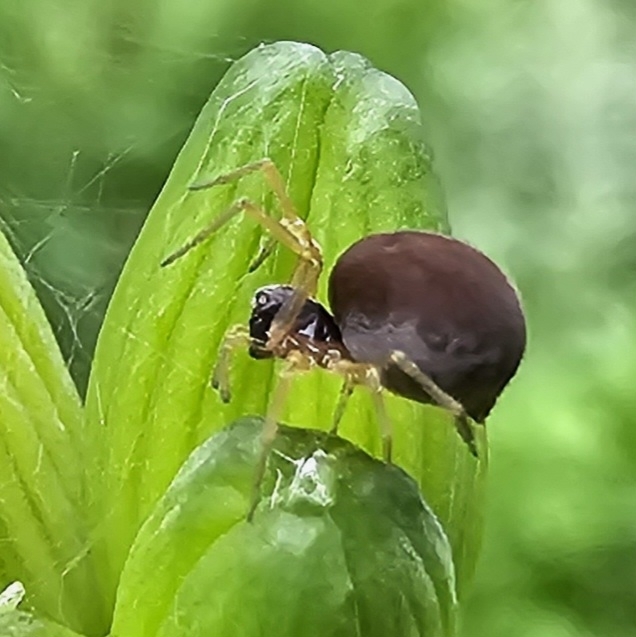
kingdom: Animalia
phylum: Arthropoda
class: Arachnida
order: Araneae
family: Dictynidae
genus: Emblyna
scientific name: Emblyna sublata
